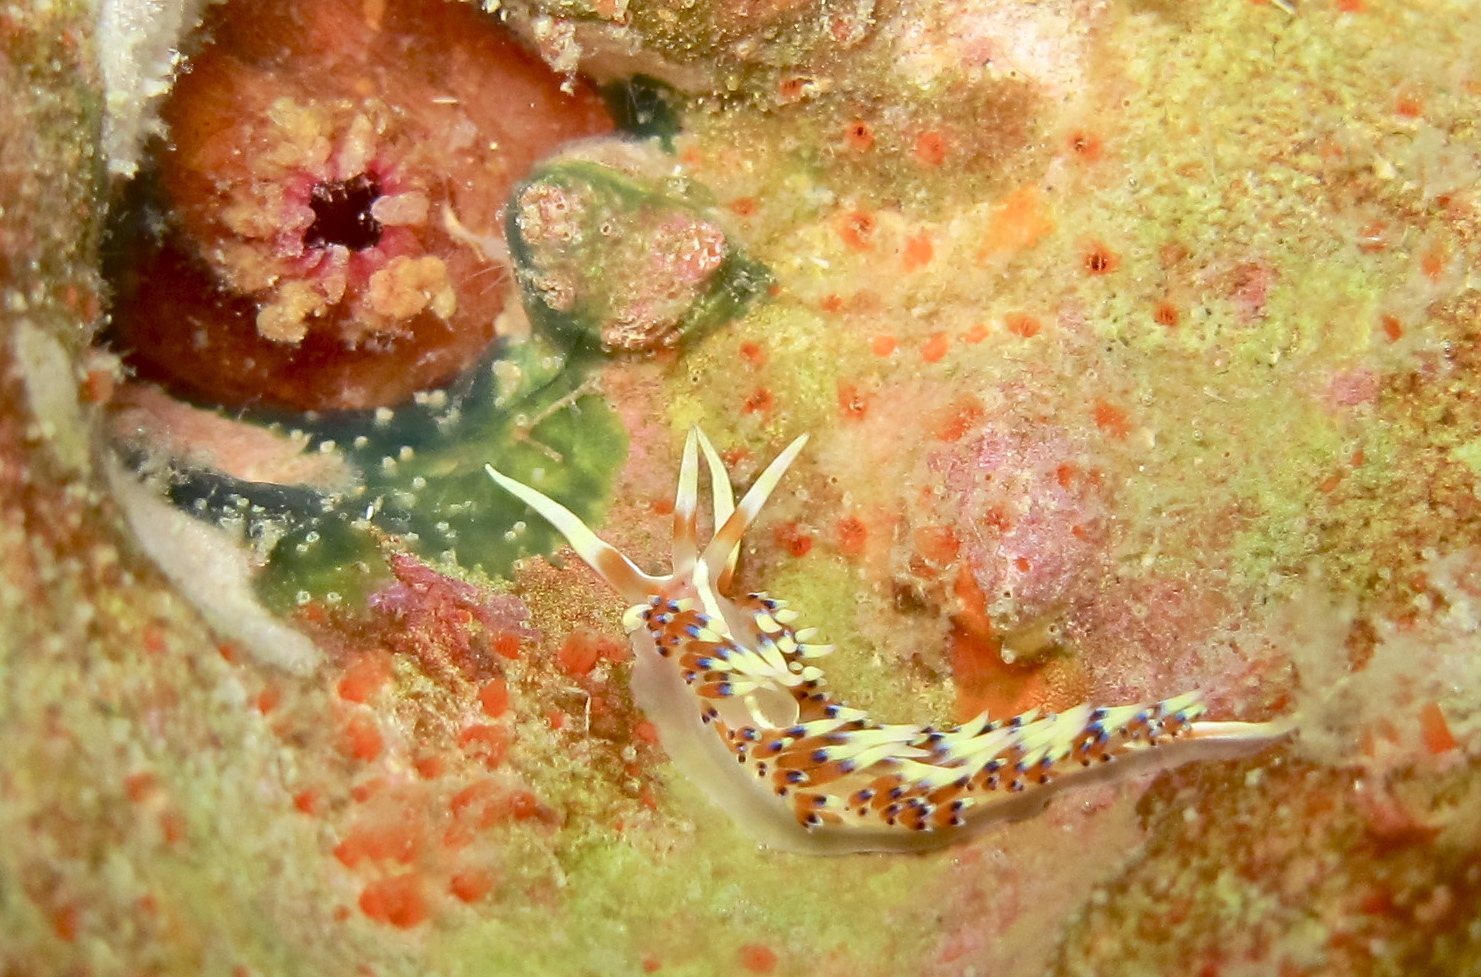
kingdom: Animalia
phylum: Mollusca
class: Gastropoda
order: Nudibranchia
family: Facelinidae
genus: Caloria
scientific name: Caloria indica
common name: Sea slug
